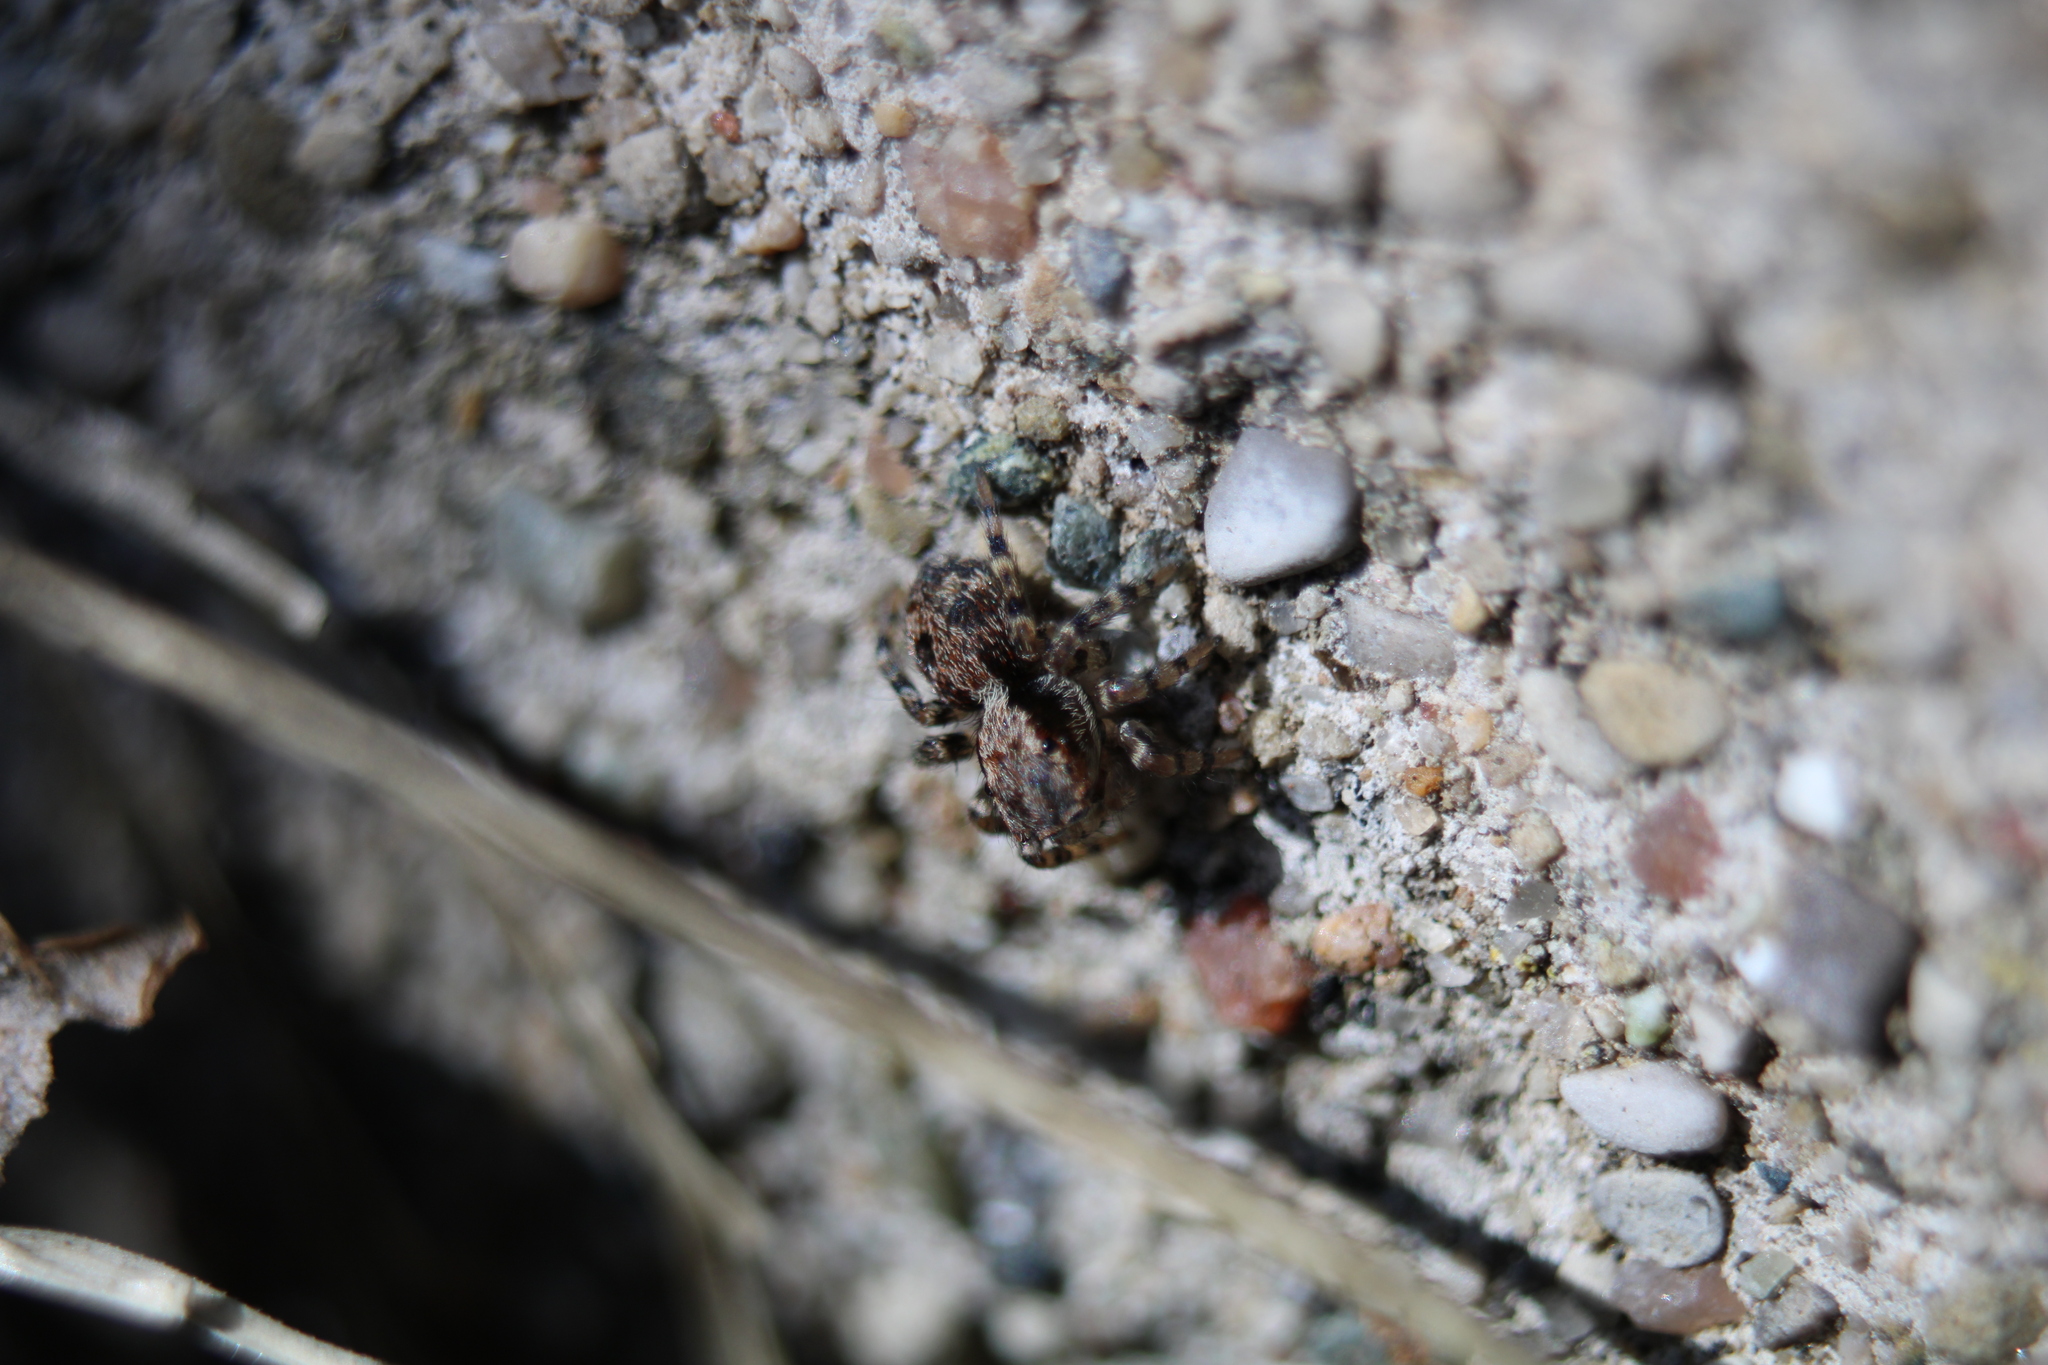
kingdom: Animalia
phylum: Arthropoda
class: Arachnida
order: Araneae
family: Salticidae
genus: Naphrys
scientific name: Naphrys pulex
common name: Flea jumping spider
